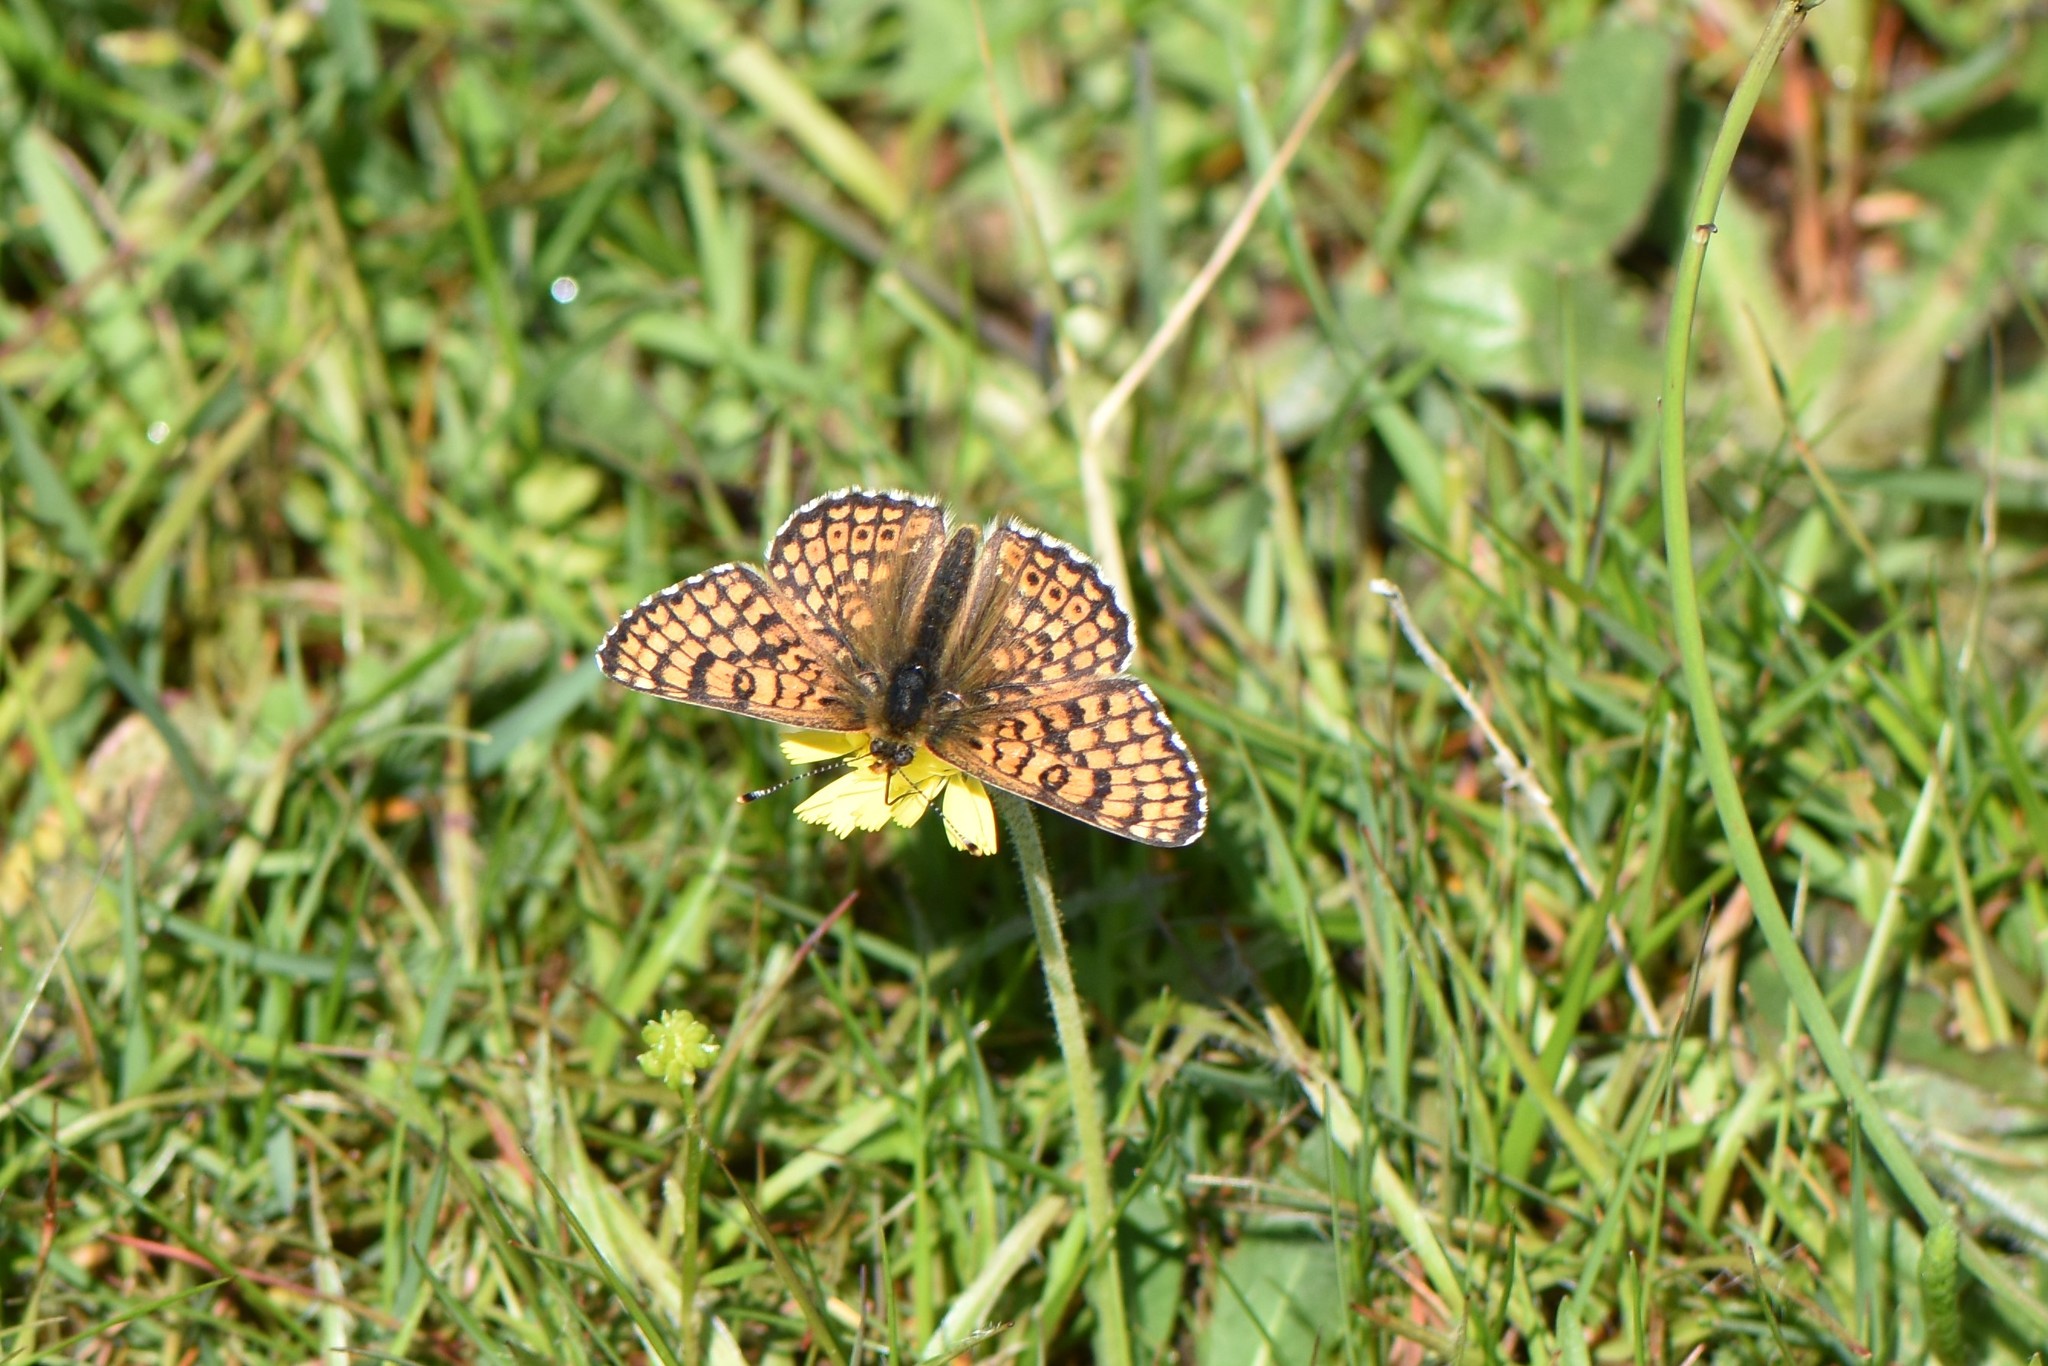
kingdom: Animalia
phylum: Arthropoda
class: Insecta
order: Lepidoptera
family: Nymphalidae
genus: Melitaea
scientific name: Melitaea cinxia
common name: Glanville fritillary
